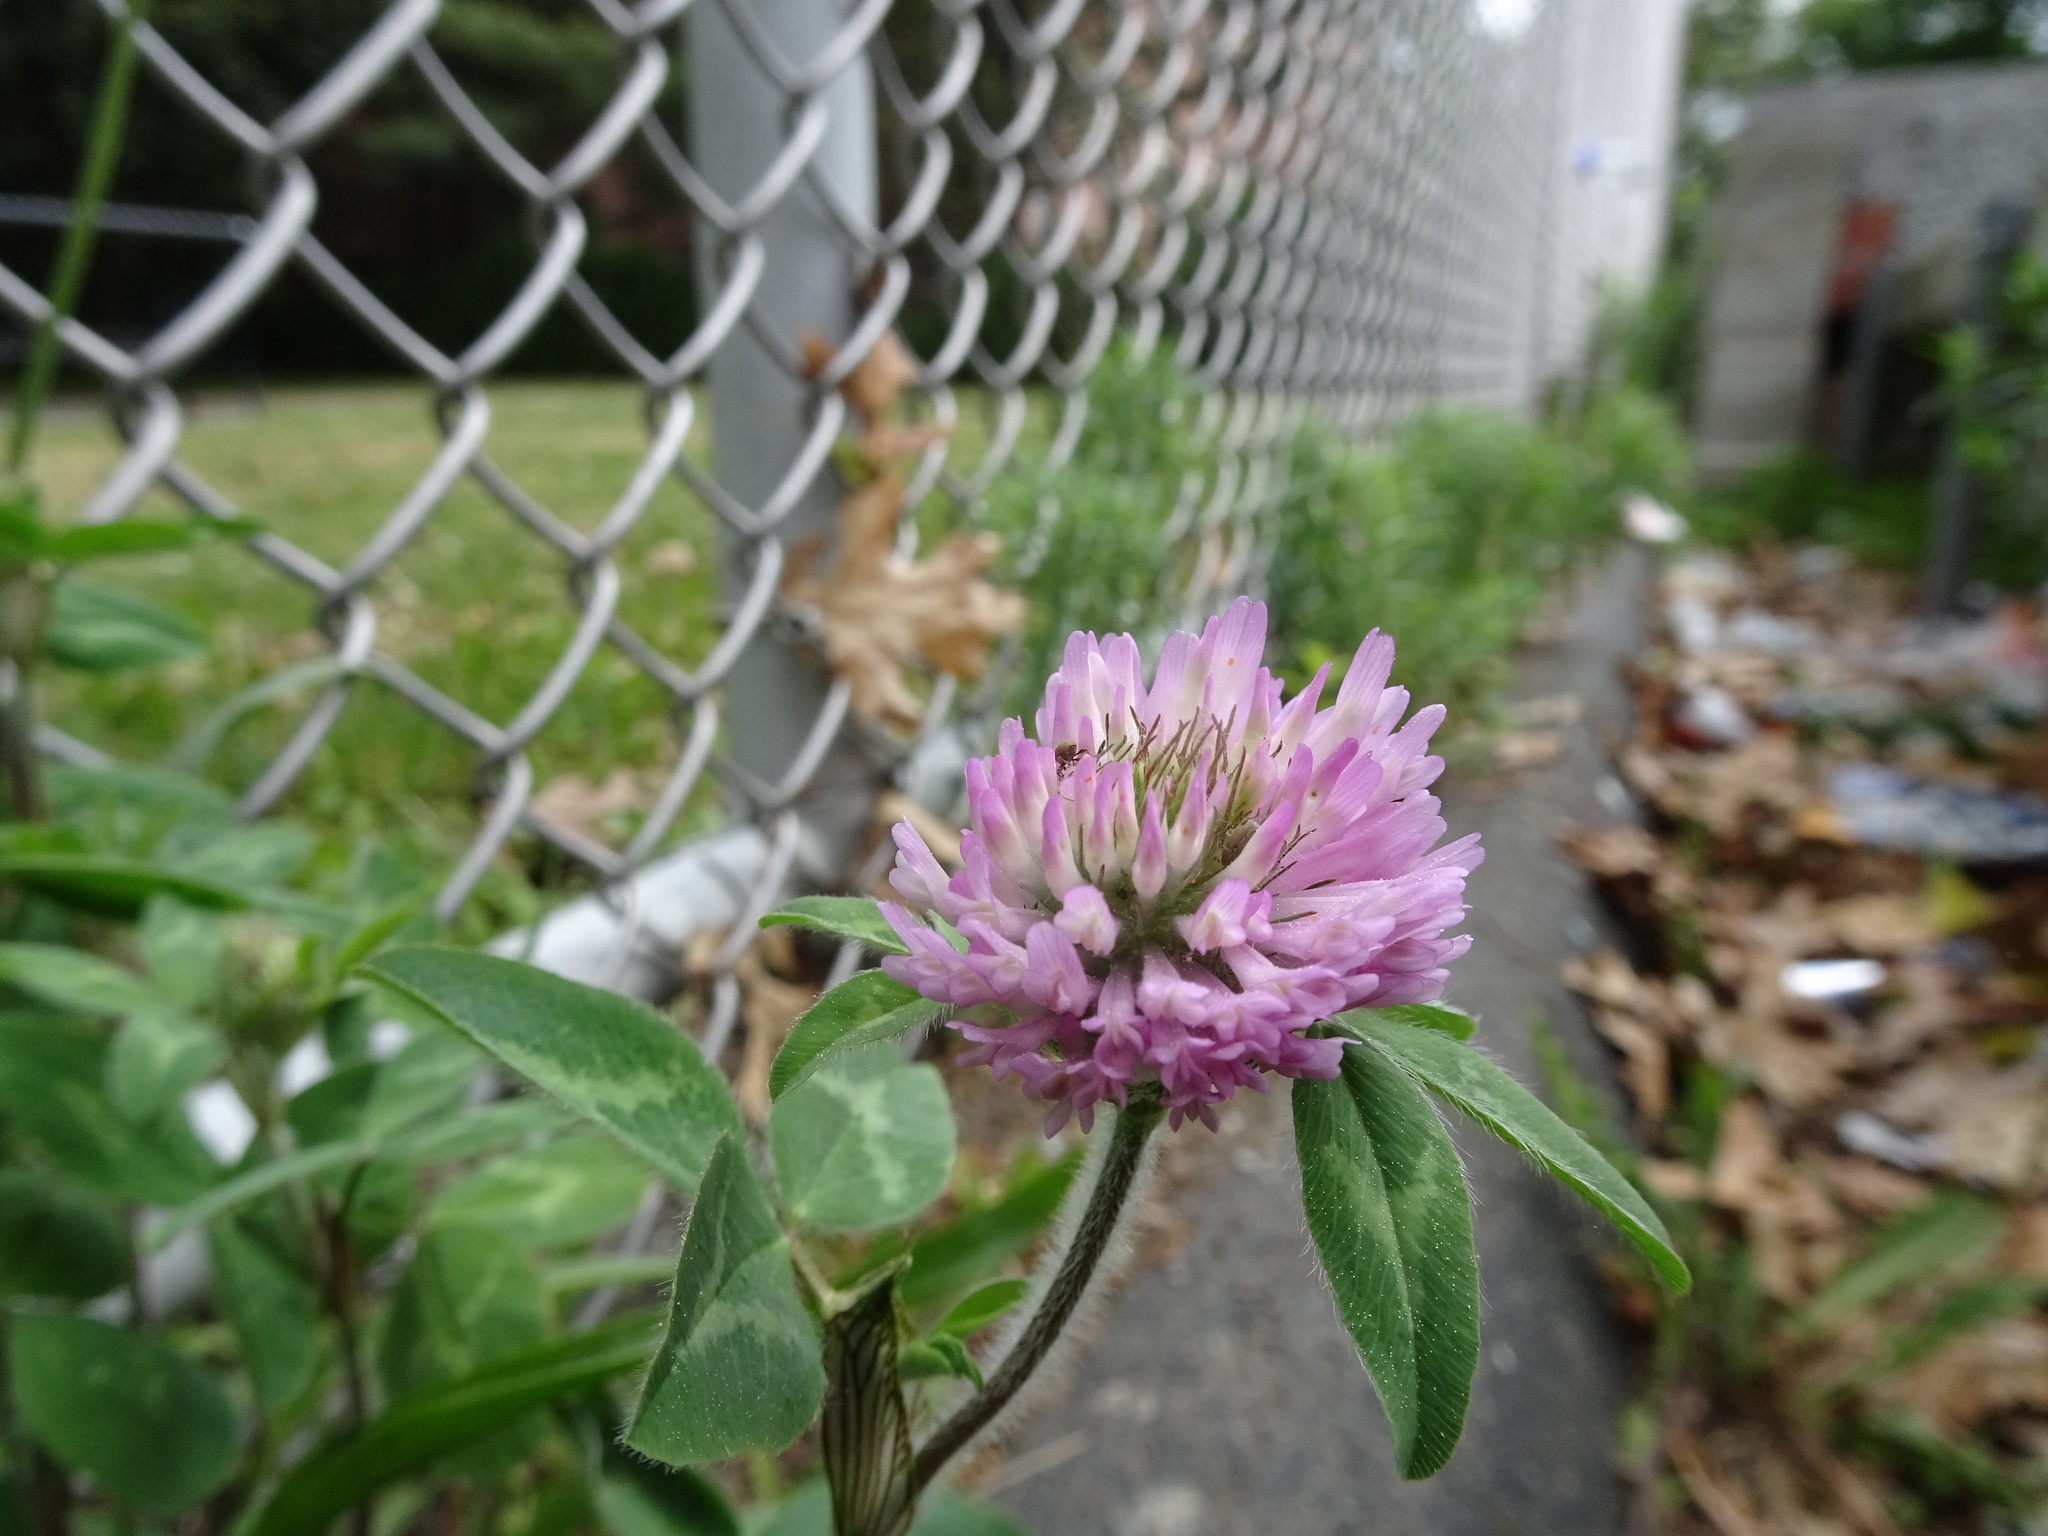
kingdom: Plantae
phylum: Tracheophyta
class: Magnoliopsida
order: Fabales
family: Fabaceae
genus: Trifolium
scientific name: Trifolium pratense
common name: Red clover
